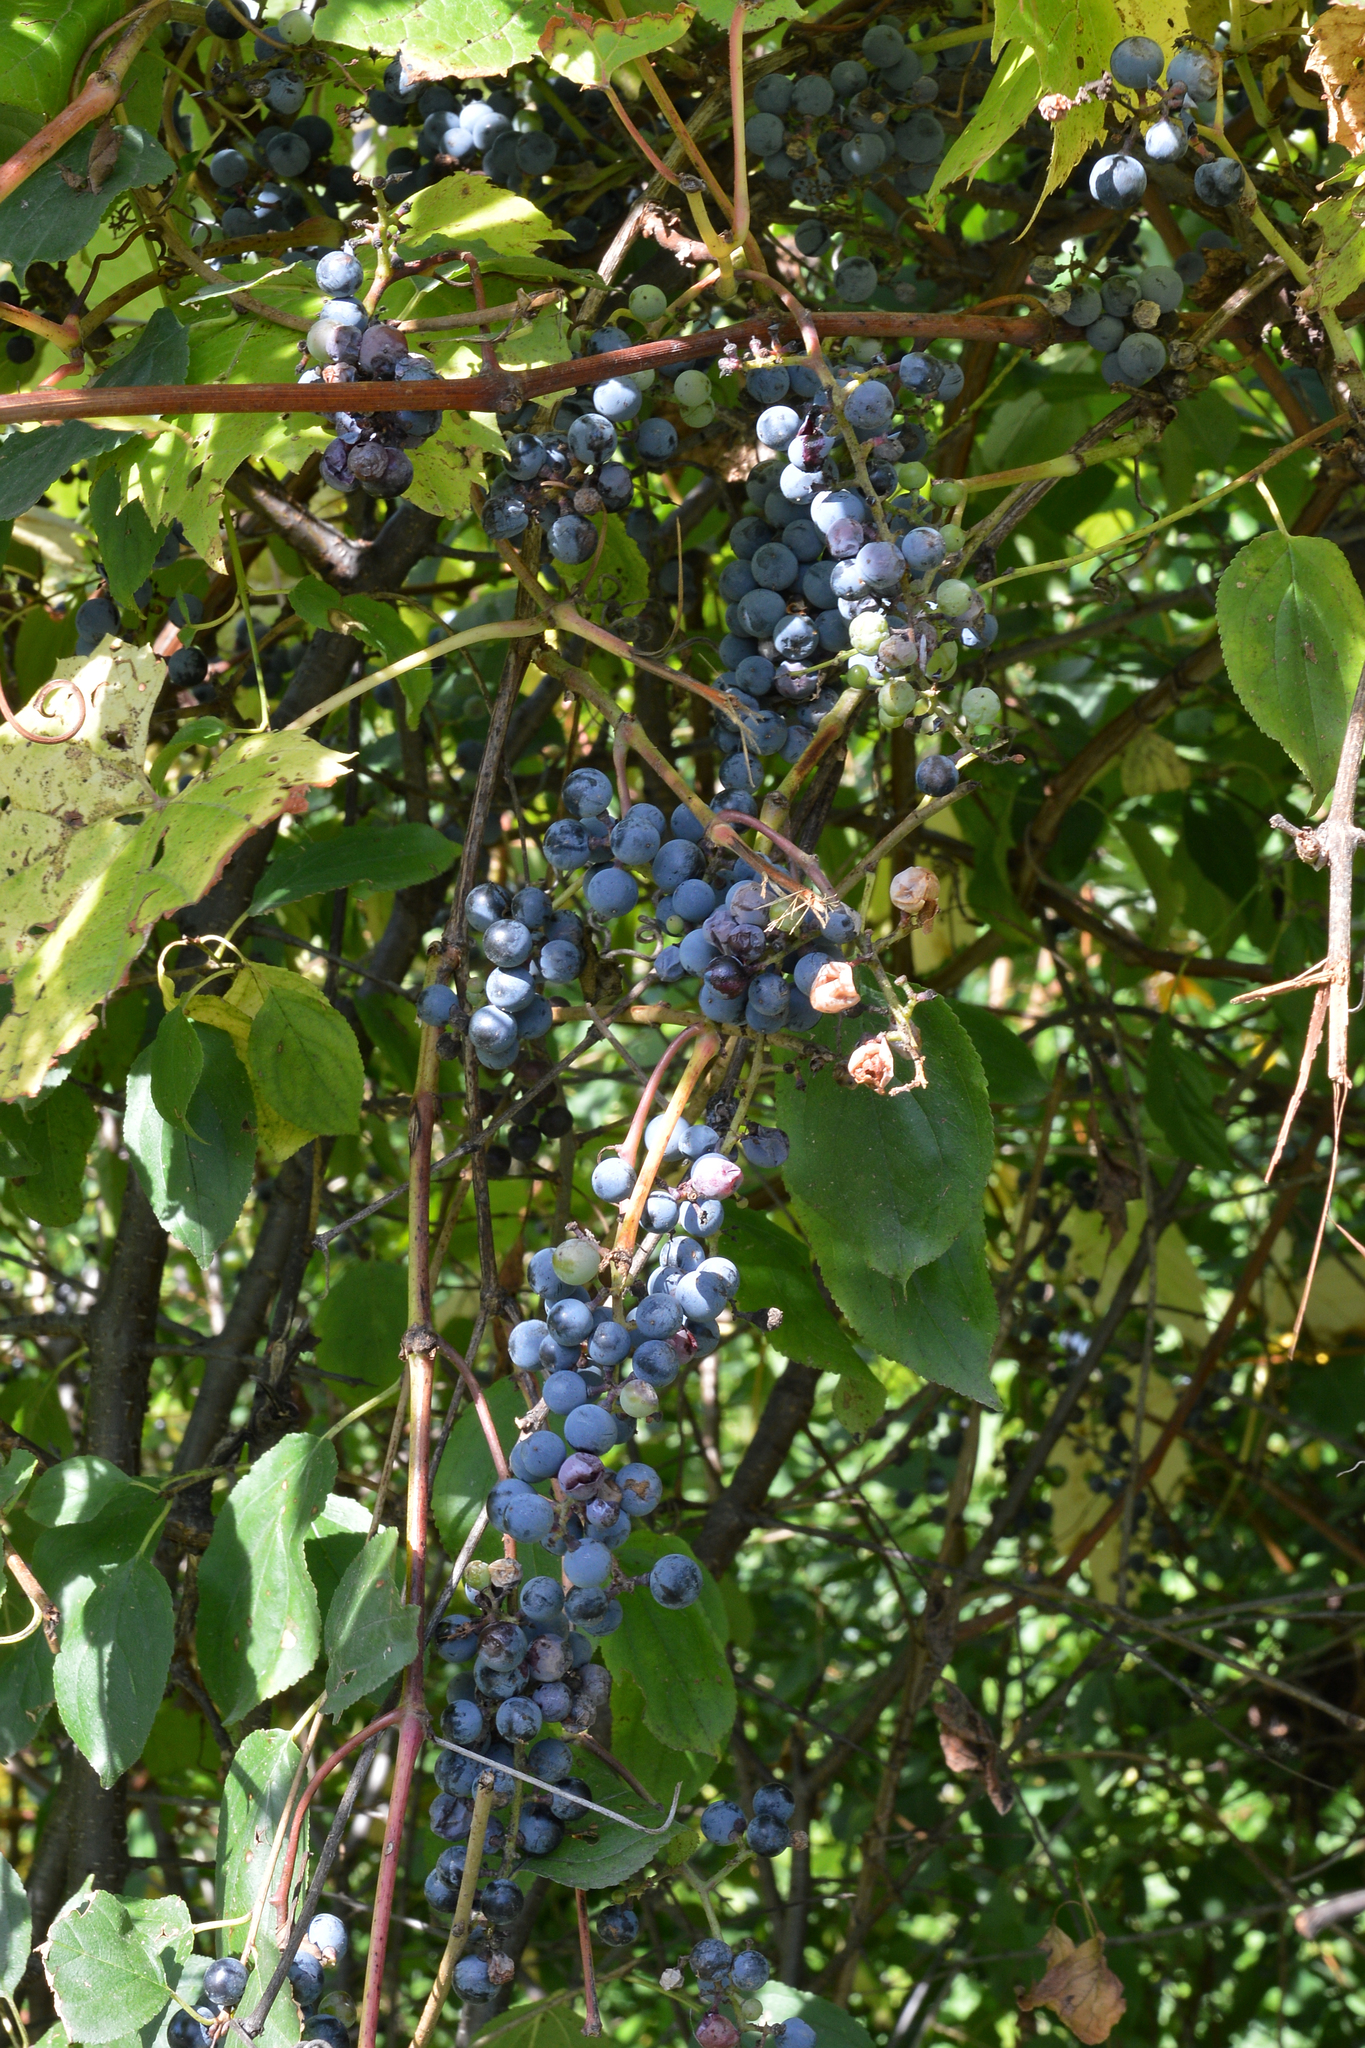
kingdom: Plantae
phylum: Tracheophyta
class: Magnoliopsida
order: Vitales
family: Vitaceae
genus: Vitis
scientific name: Vitis riparia
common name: Frost grape
